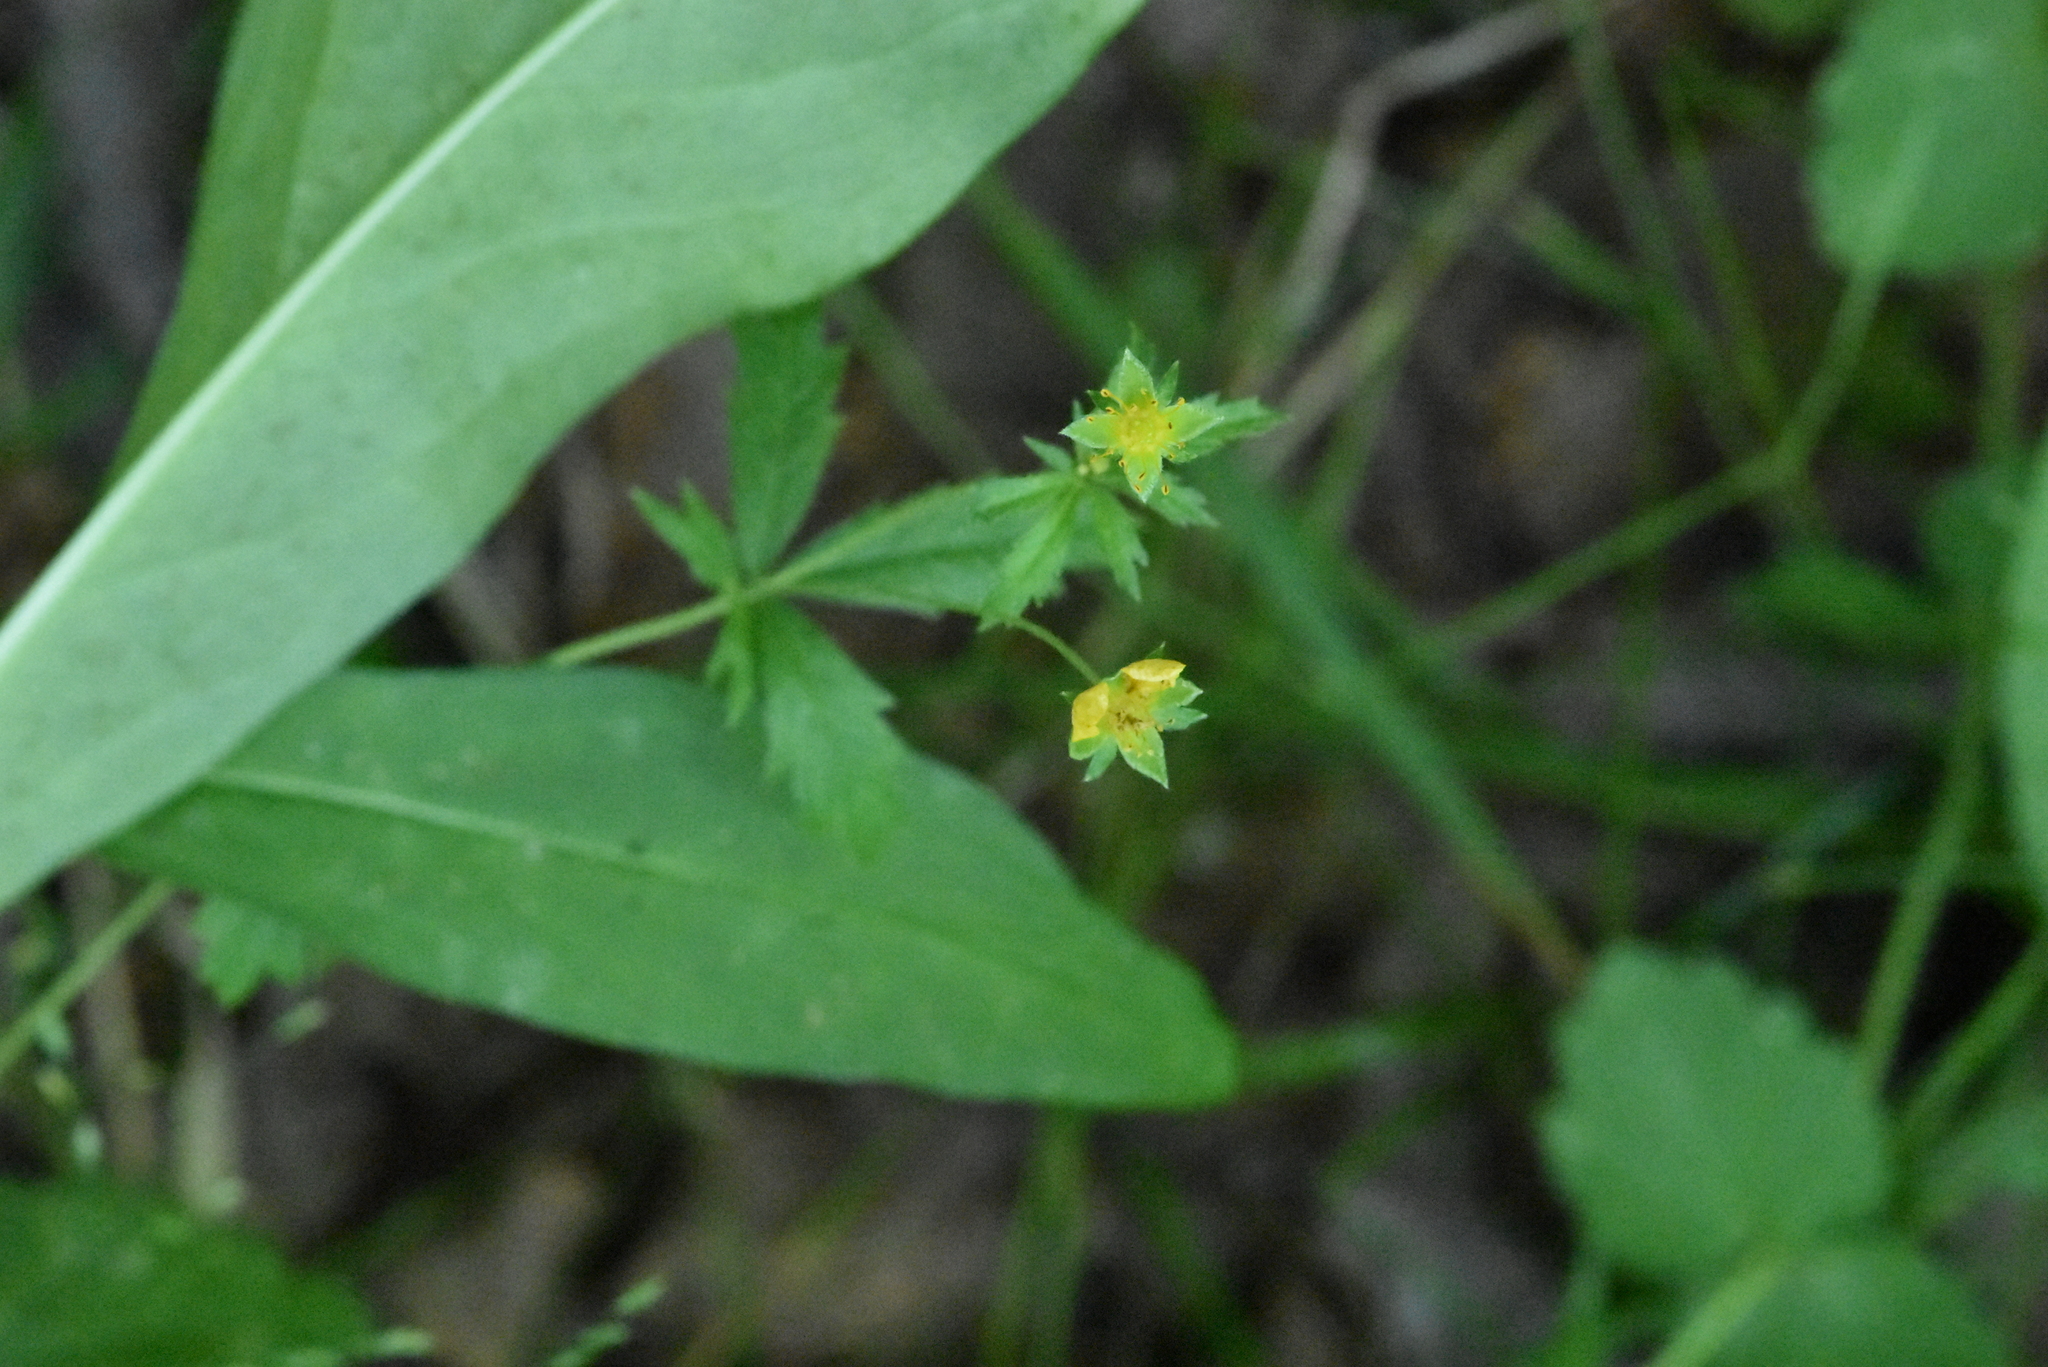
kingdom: Plantae
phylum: Tracheophyta
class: Magnoliopsida
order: Rosales
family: Rosaceae
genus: Potentilla
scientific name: Potentilla erecta
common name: Tormentil
